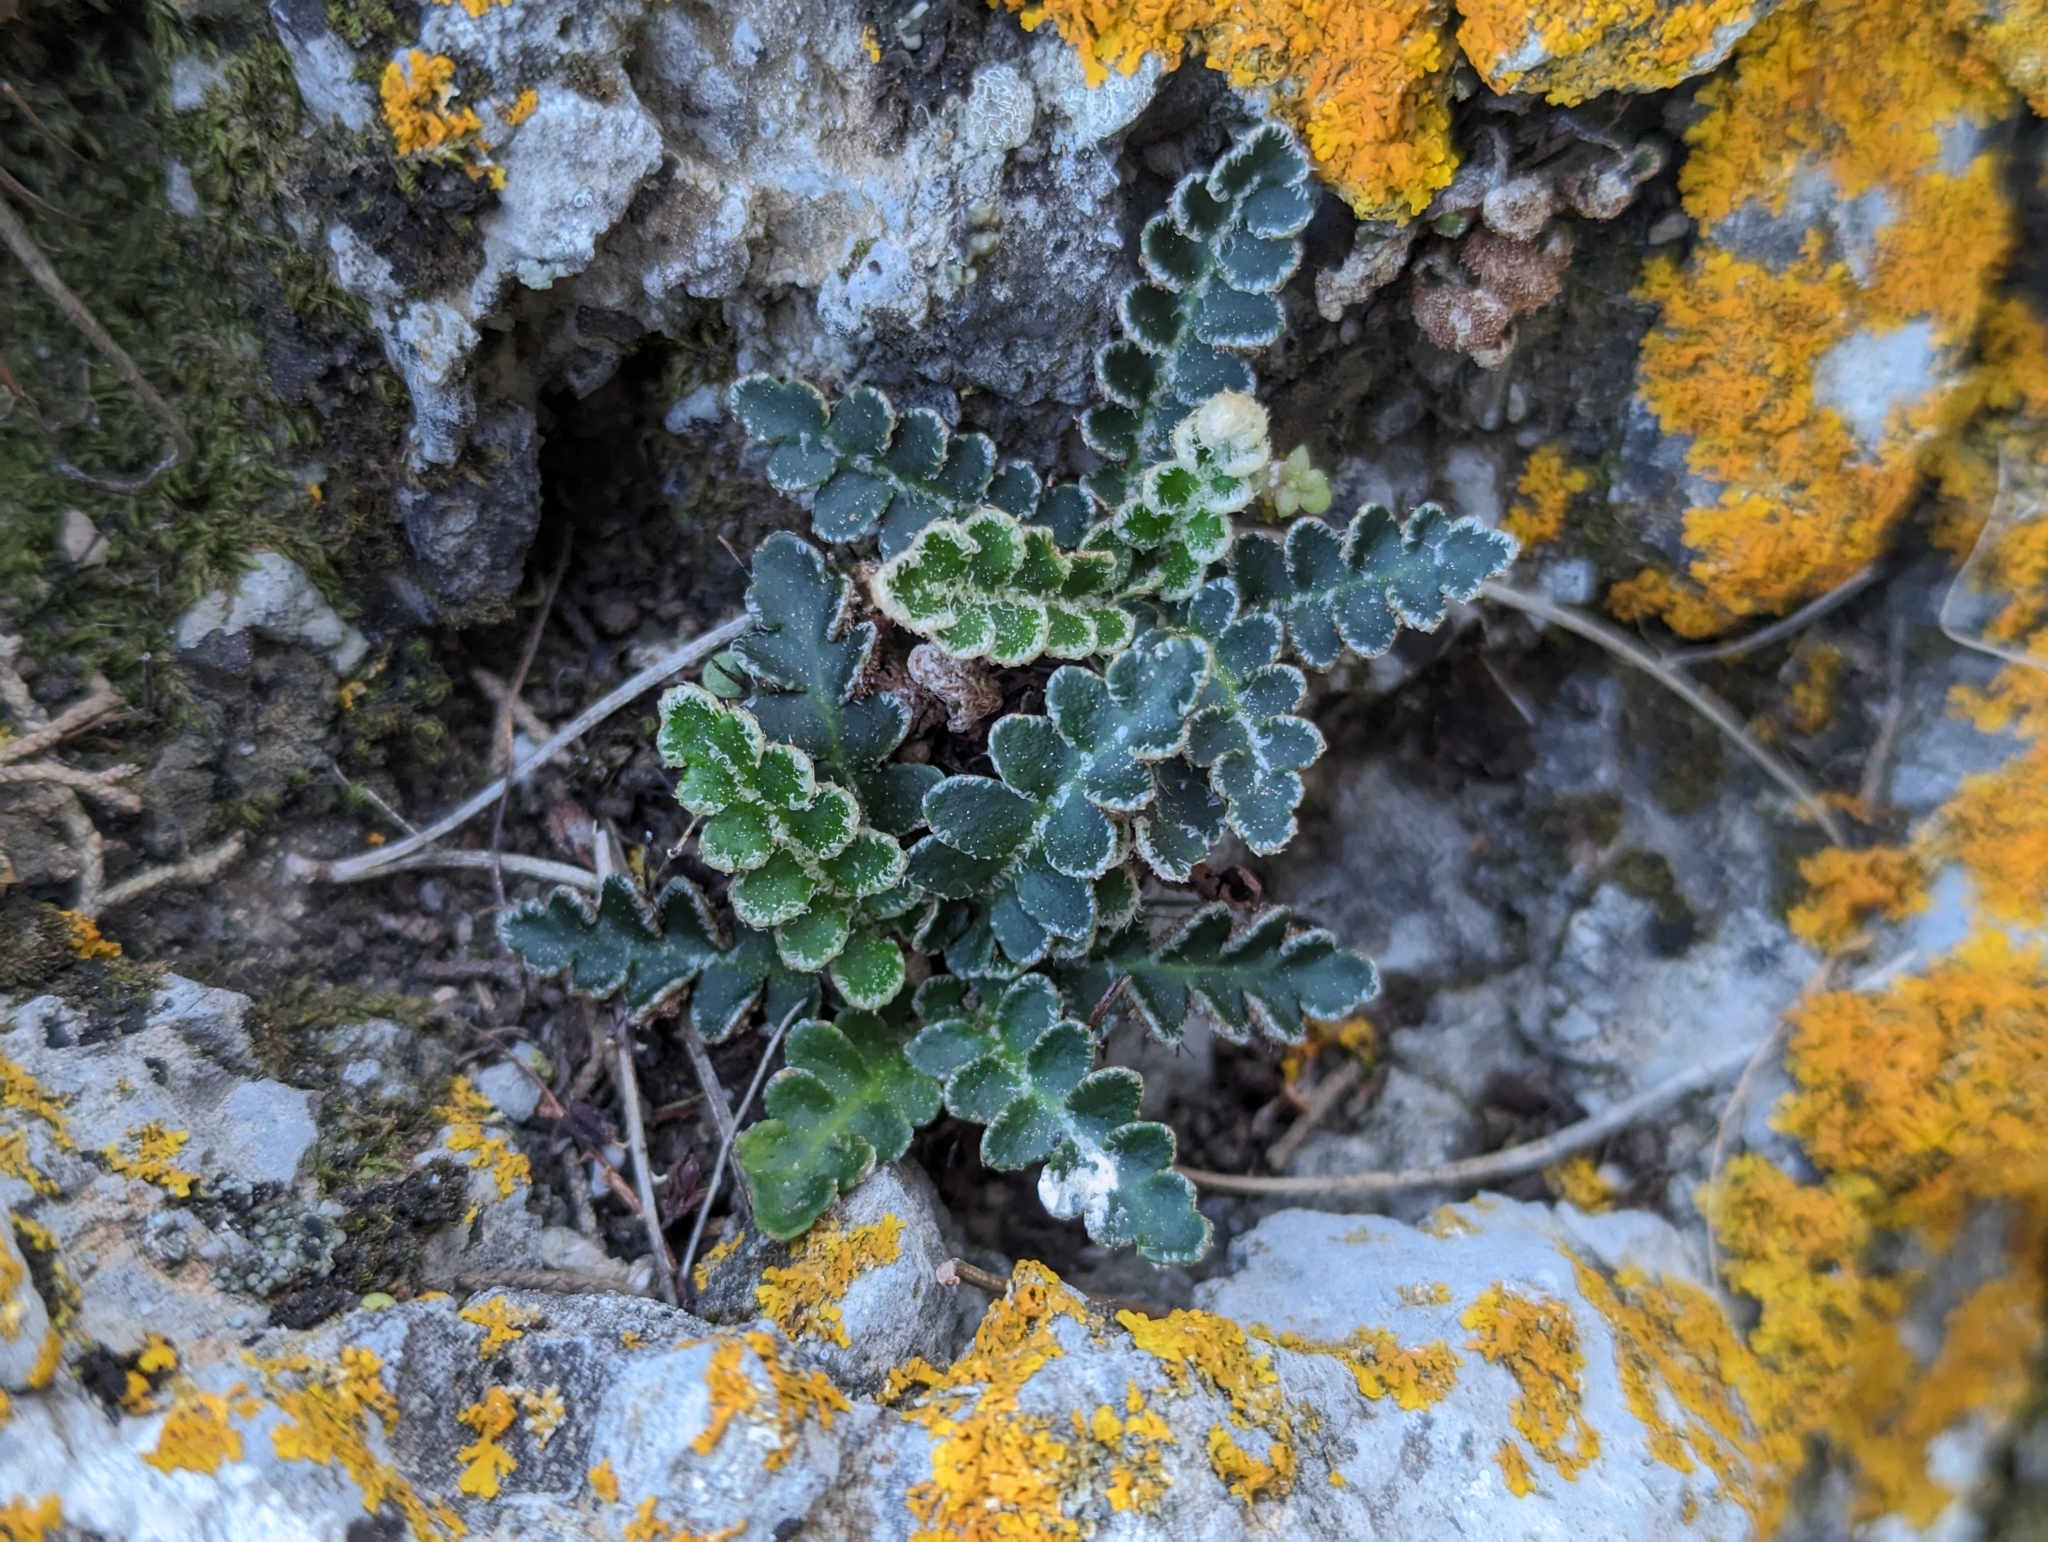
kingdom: Plantae
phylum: Tracheophyta
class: Polypodiopsida
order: Polypodiales
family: Aspleniaceae
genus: Asplenium
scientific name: Asplenium ceterach
